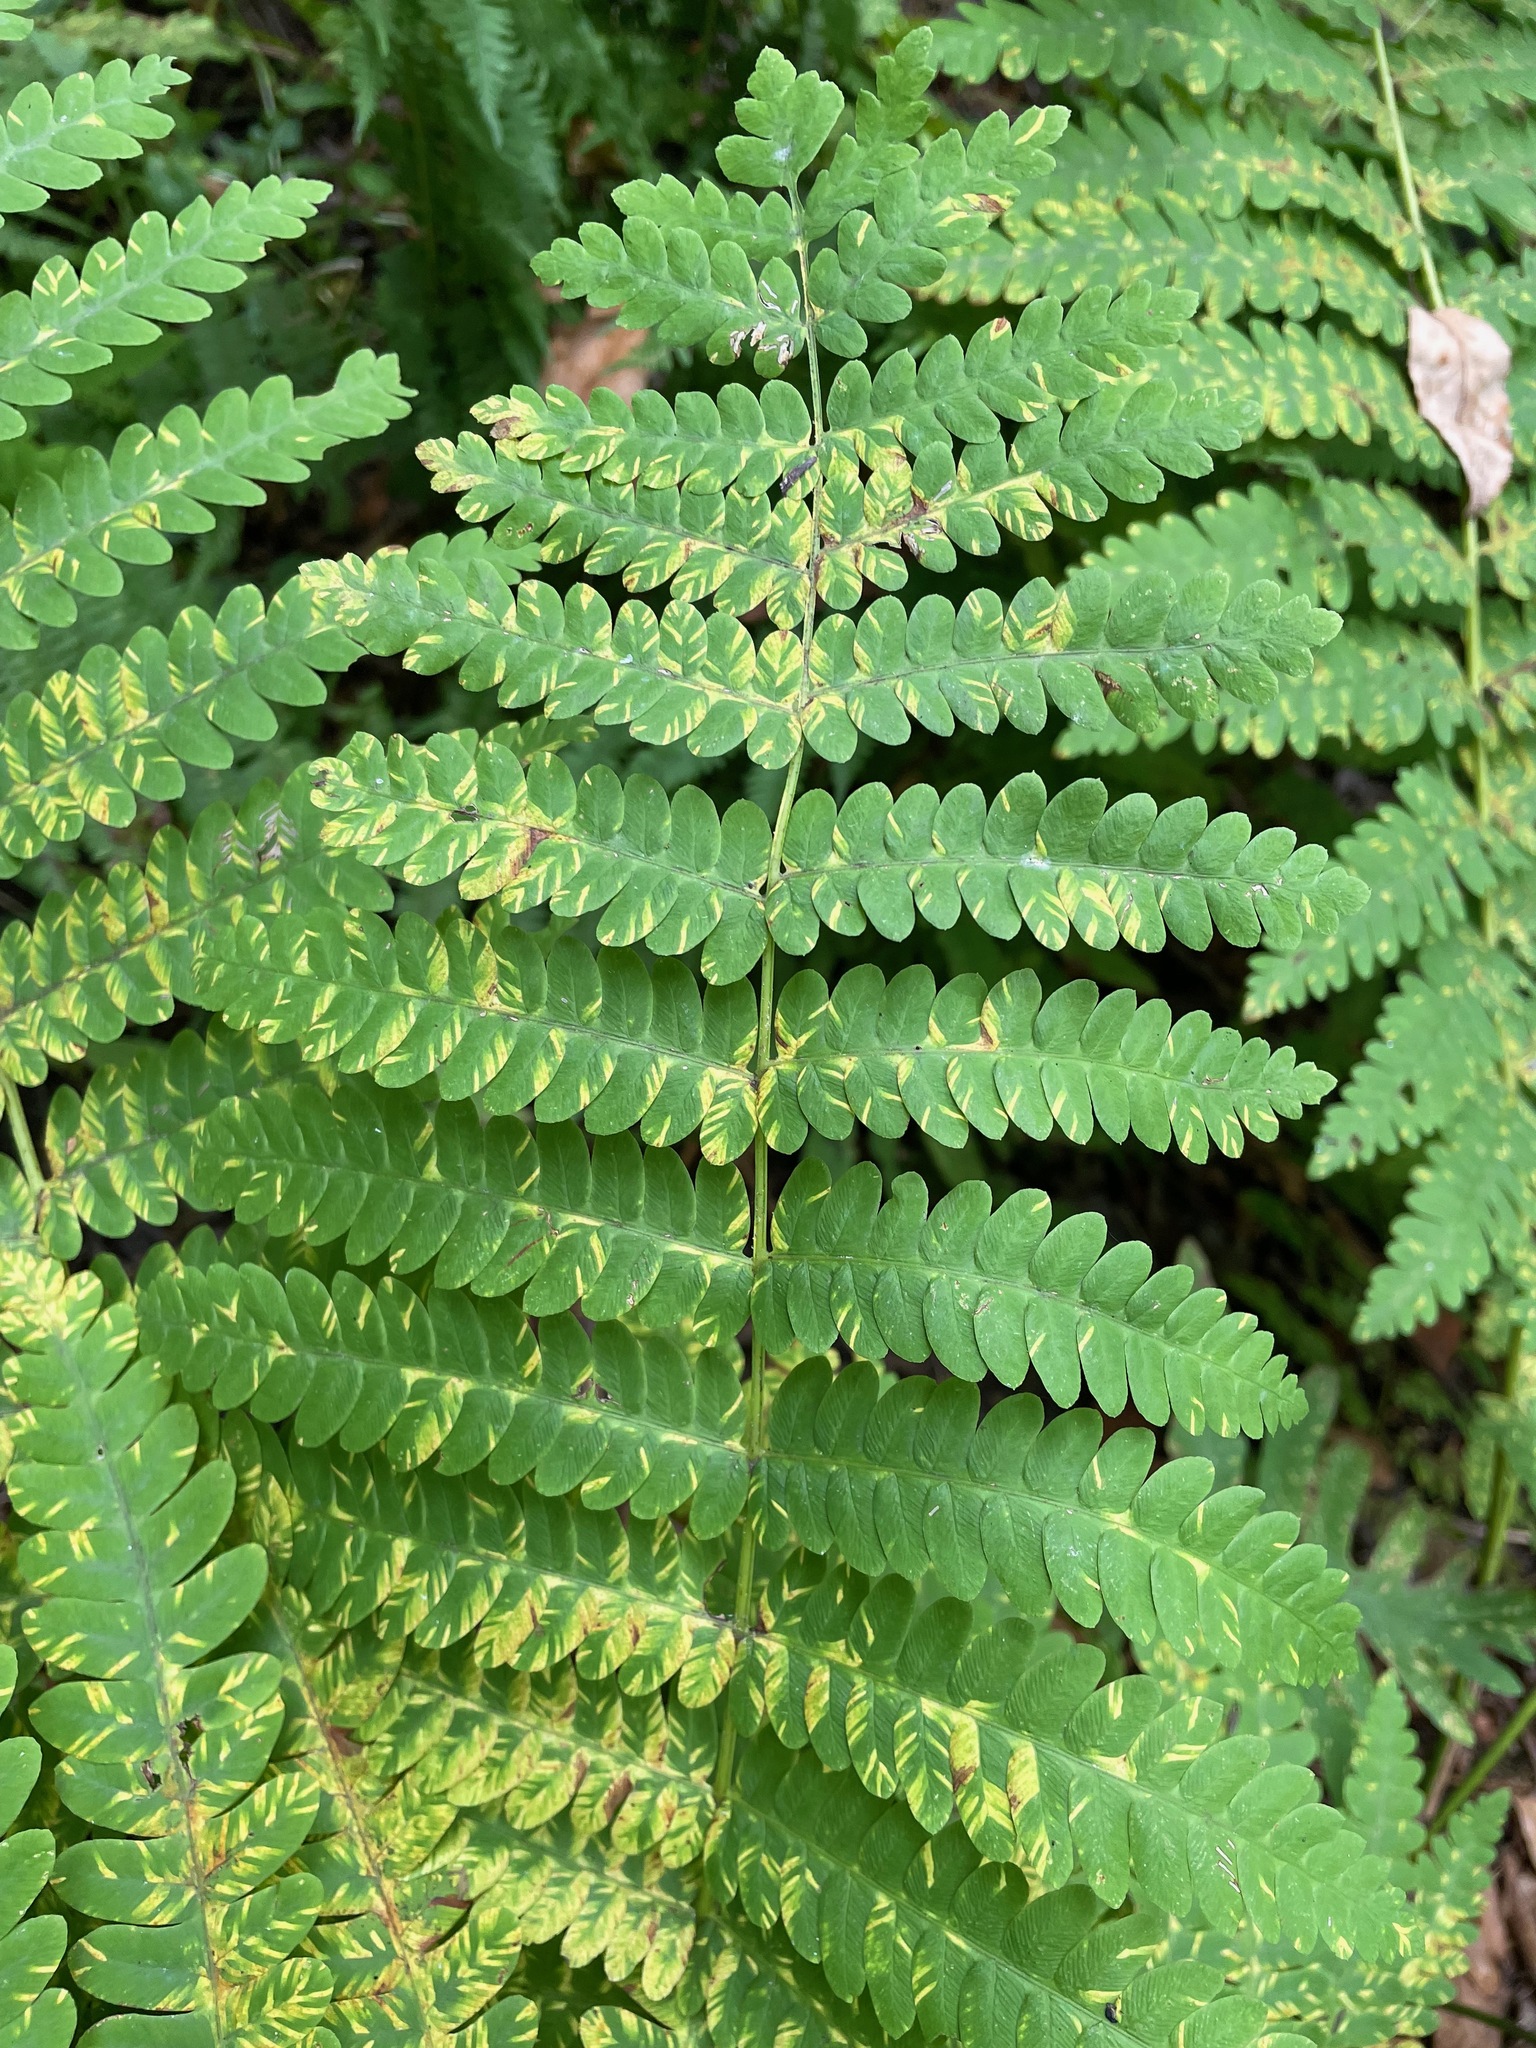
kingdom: Plantae
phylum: Tracheophyta
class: Polypodiopsida
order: Osmundales
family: Osmundaceae
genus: Claytosmunda
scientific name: Claytosmunda claytoniana
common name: Clayton's fern
